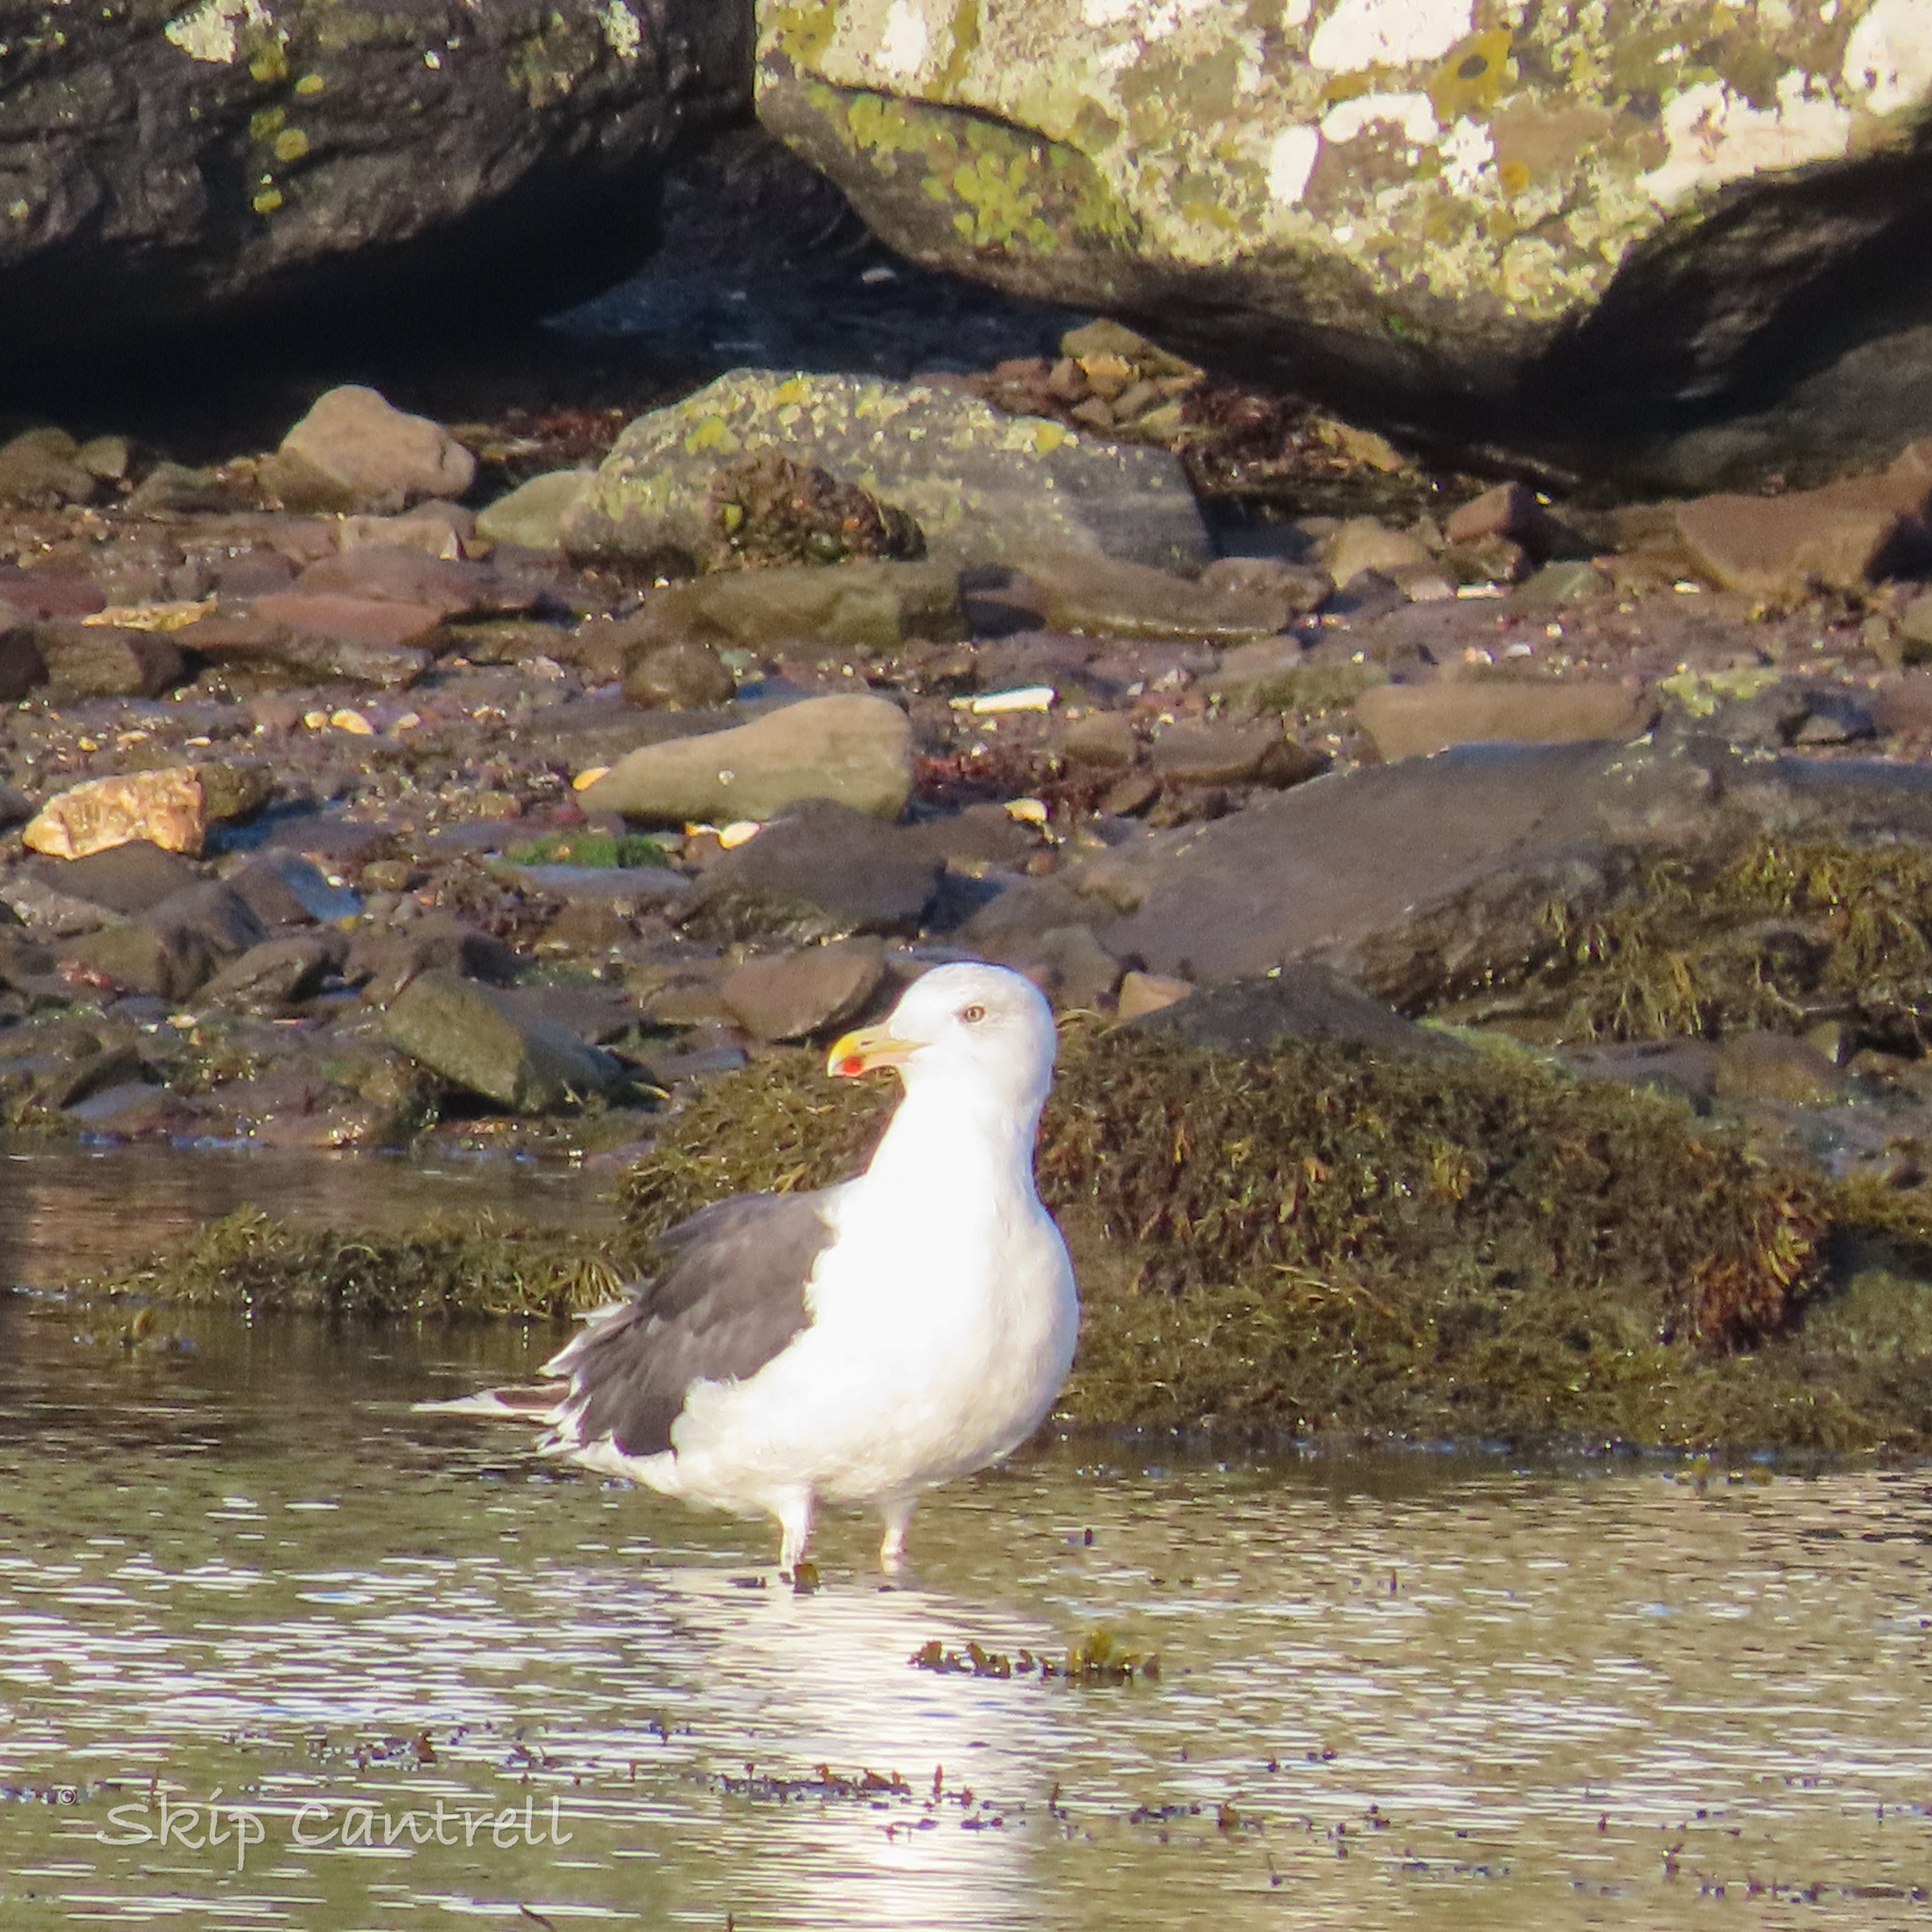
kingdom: Animalia
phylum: Chordata
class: Aves
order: Charadriiformes
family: Laridae
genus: Larus
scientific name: Larus marinus
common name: Great black-backed gull
